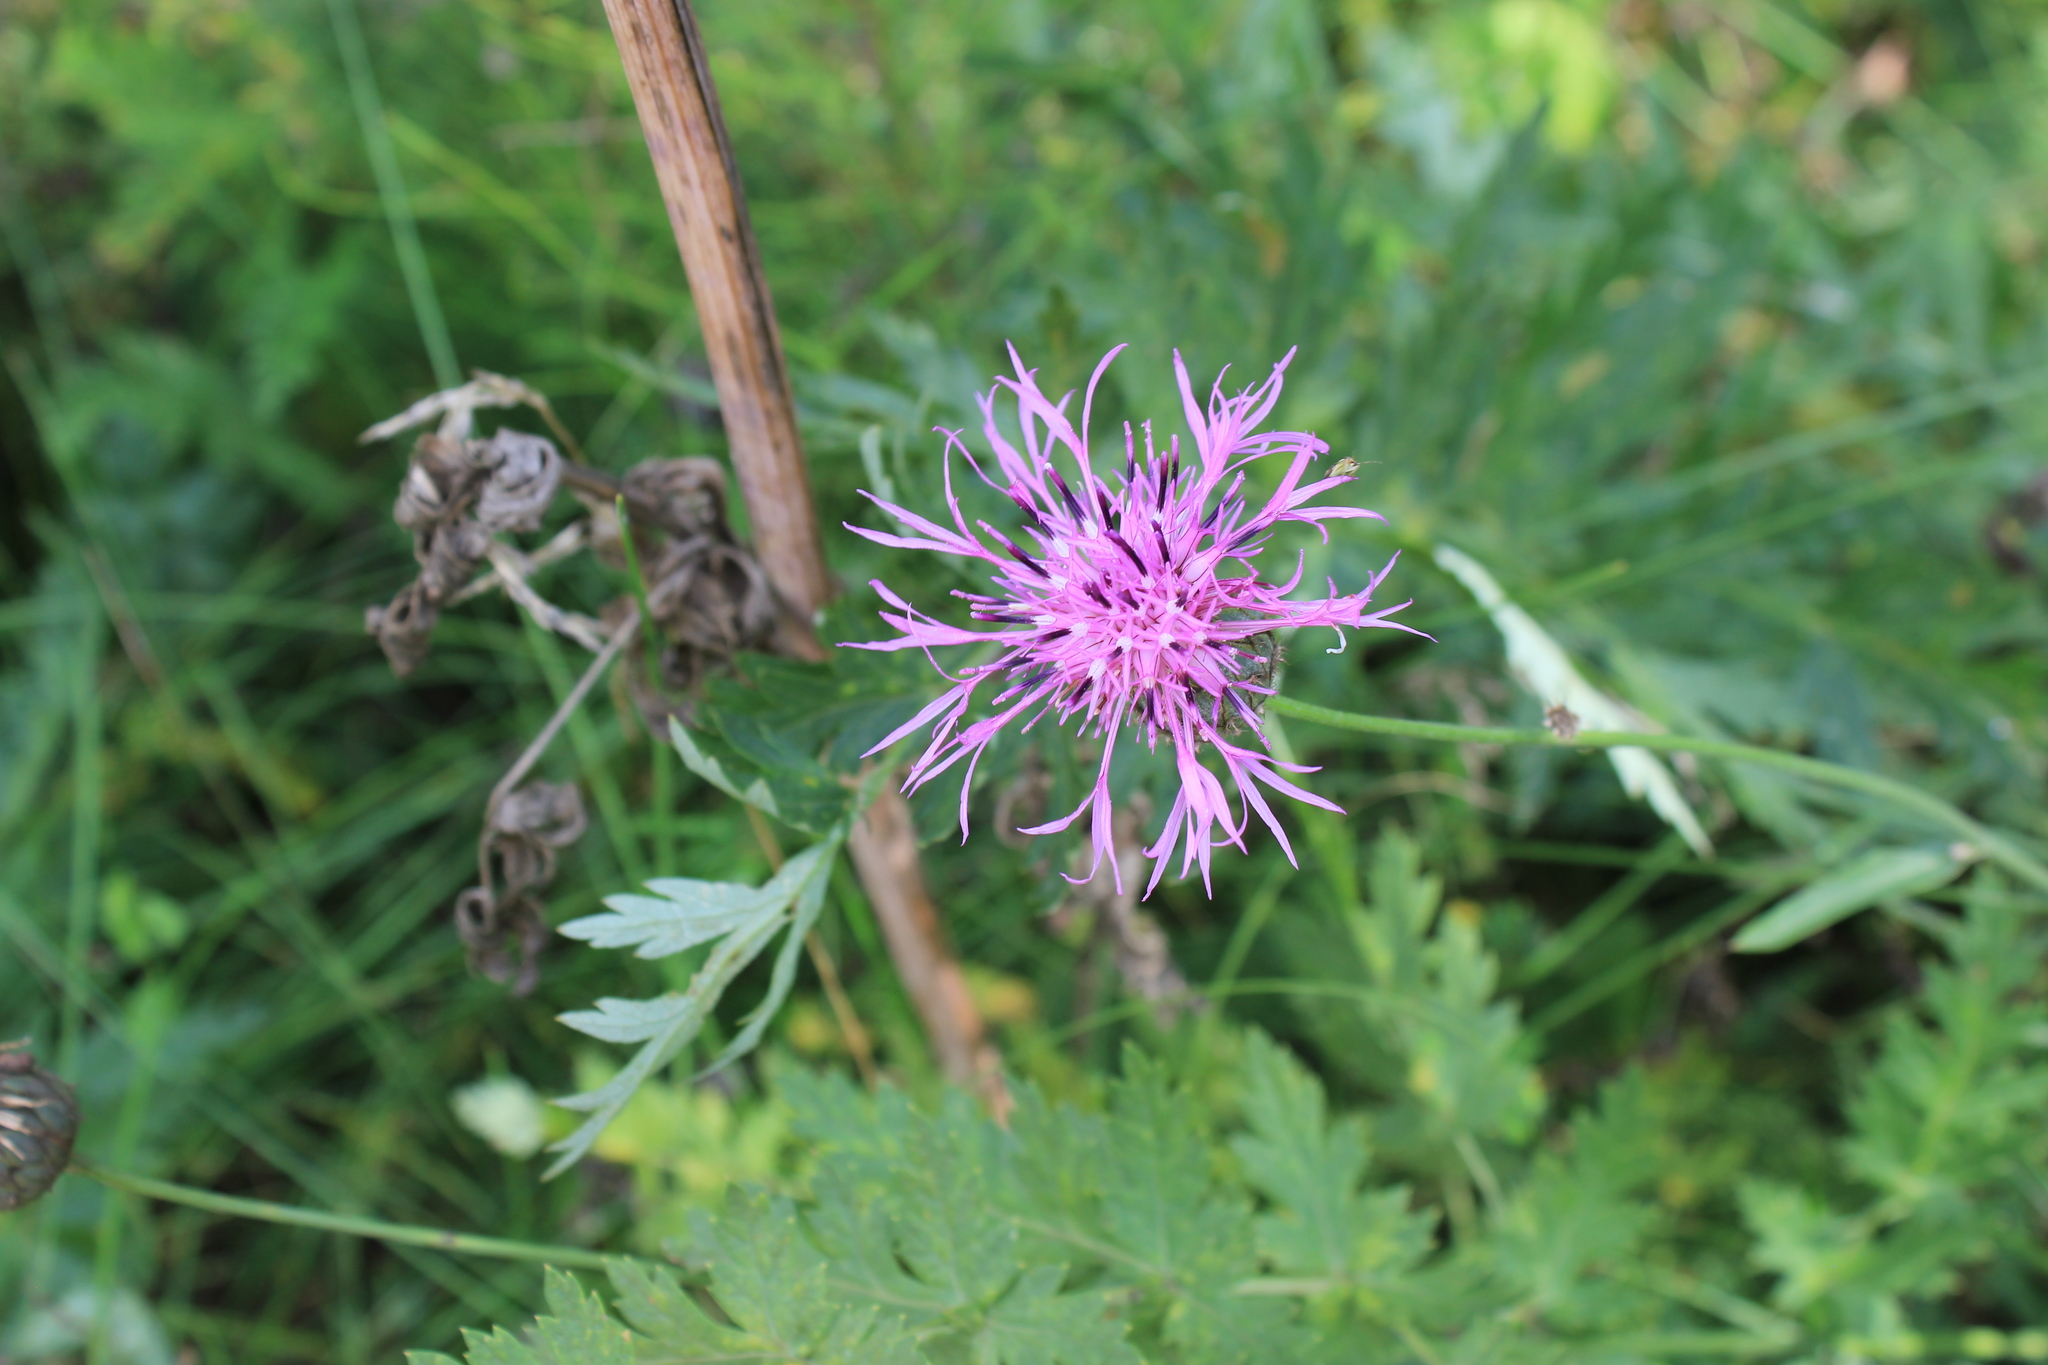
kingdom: Plantae
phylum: Tracheophyta
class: Magnoliopsida
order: Asterales
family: Asteraceae
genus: Centaurea
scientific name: Centaurea scabiosa
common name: Greater knapweed
